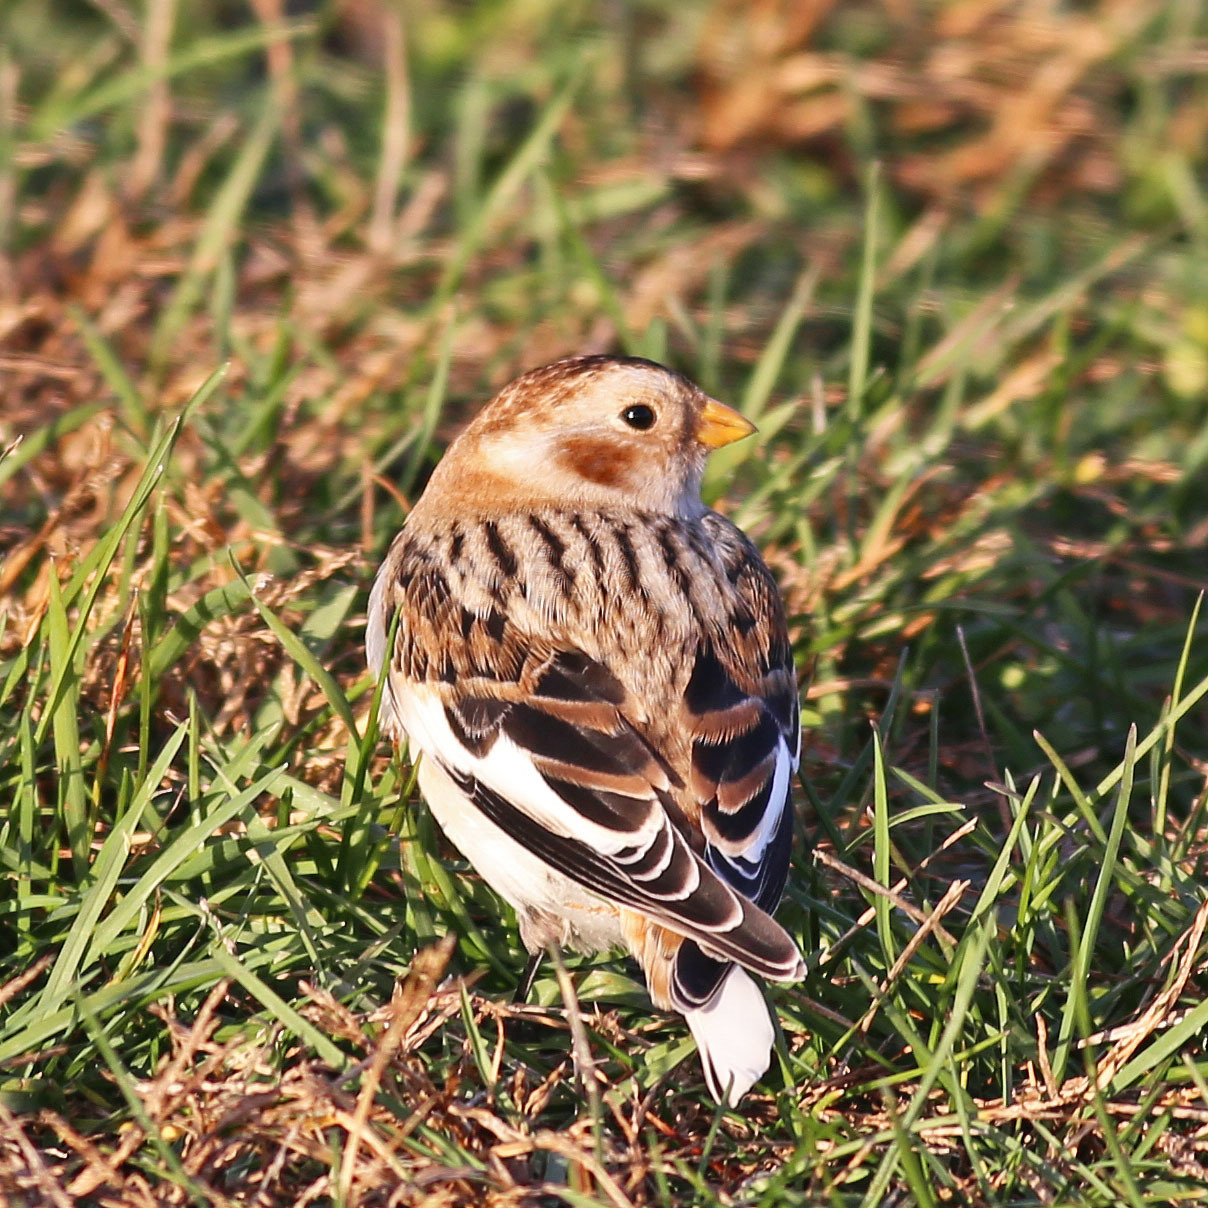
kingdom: Animalia
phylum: Chordata
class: Aves
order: Passeriformes
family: Calcariidae
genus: Plectrophenax
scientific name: Plectrophenax nivalis
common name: Snow bunting
